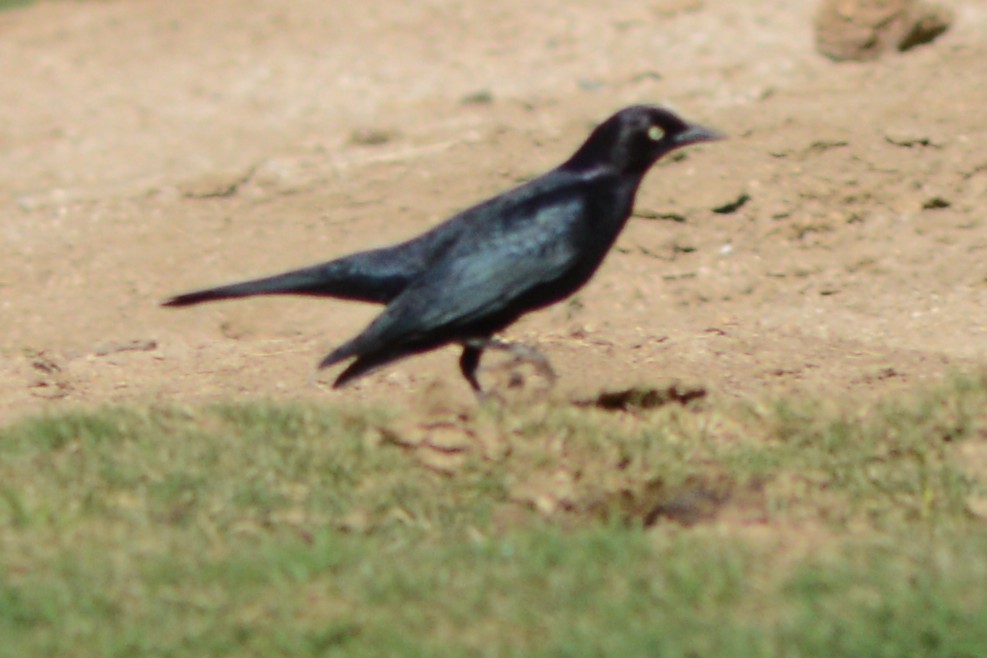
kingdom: Animalia
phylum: Chordata
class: Aves
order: Passeriformes
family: Icteridae
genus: Euphagus
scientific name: Euphagus cyanocephalus
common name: Brewer's blackbird
